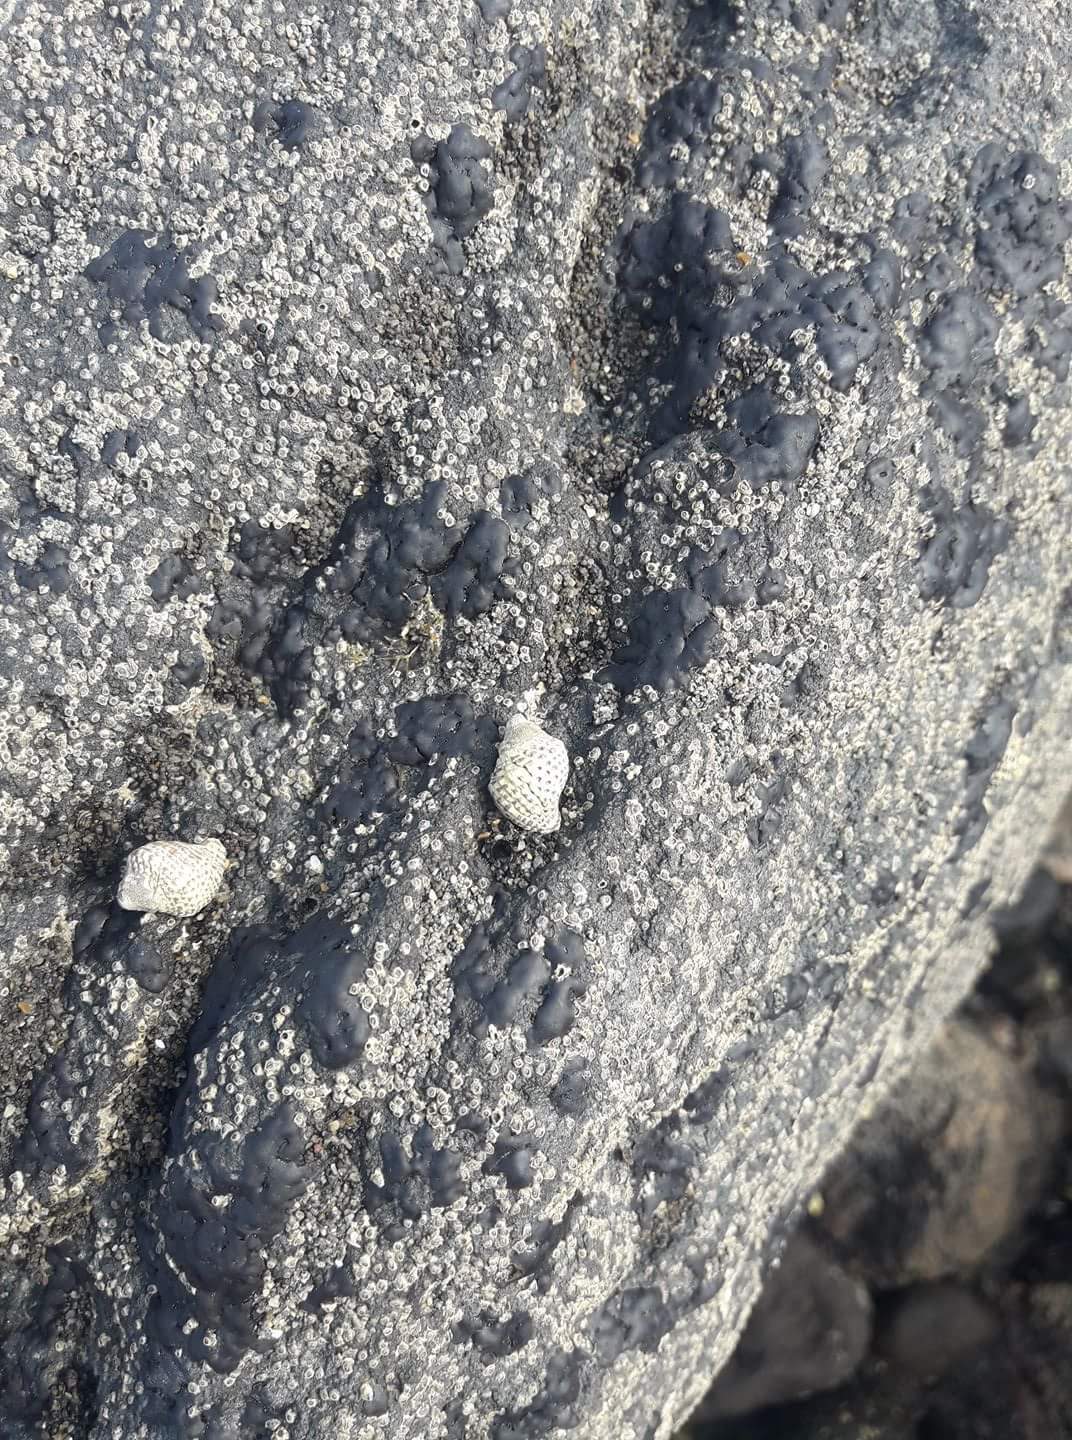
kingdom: Animalia
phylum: Mollusca
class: Gastropoda
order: Neogastropoda
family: Muricidae
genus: Haustrum
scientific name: Haustrum scobina
